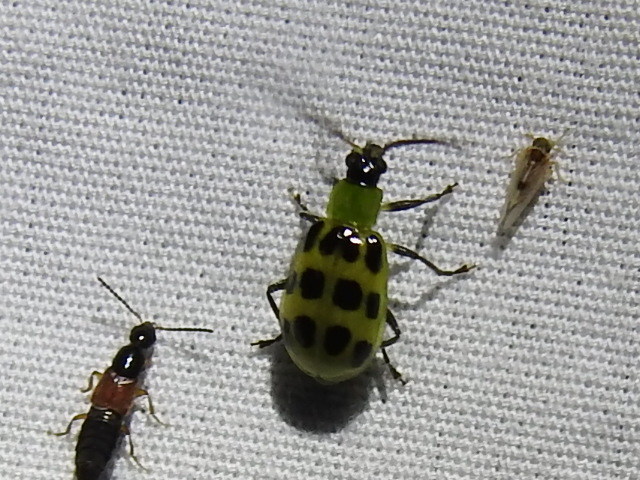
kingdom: Animalia
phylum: Arthropoda
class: Insecta
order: Coleoptera
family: Chrysomelidae
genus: Diabrotica
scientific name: Diabrotica undecimpunctata
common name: Spotted cucumber beetle
